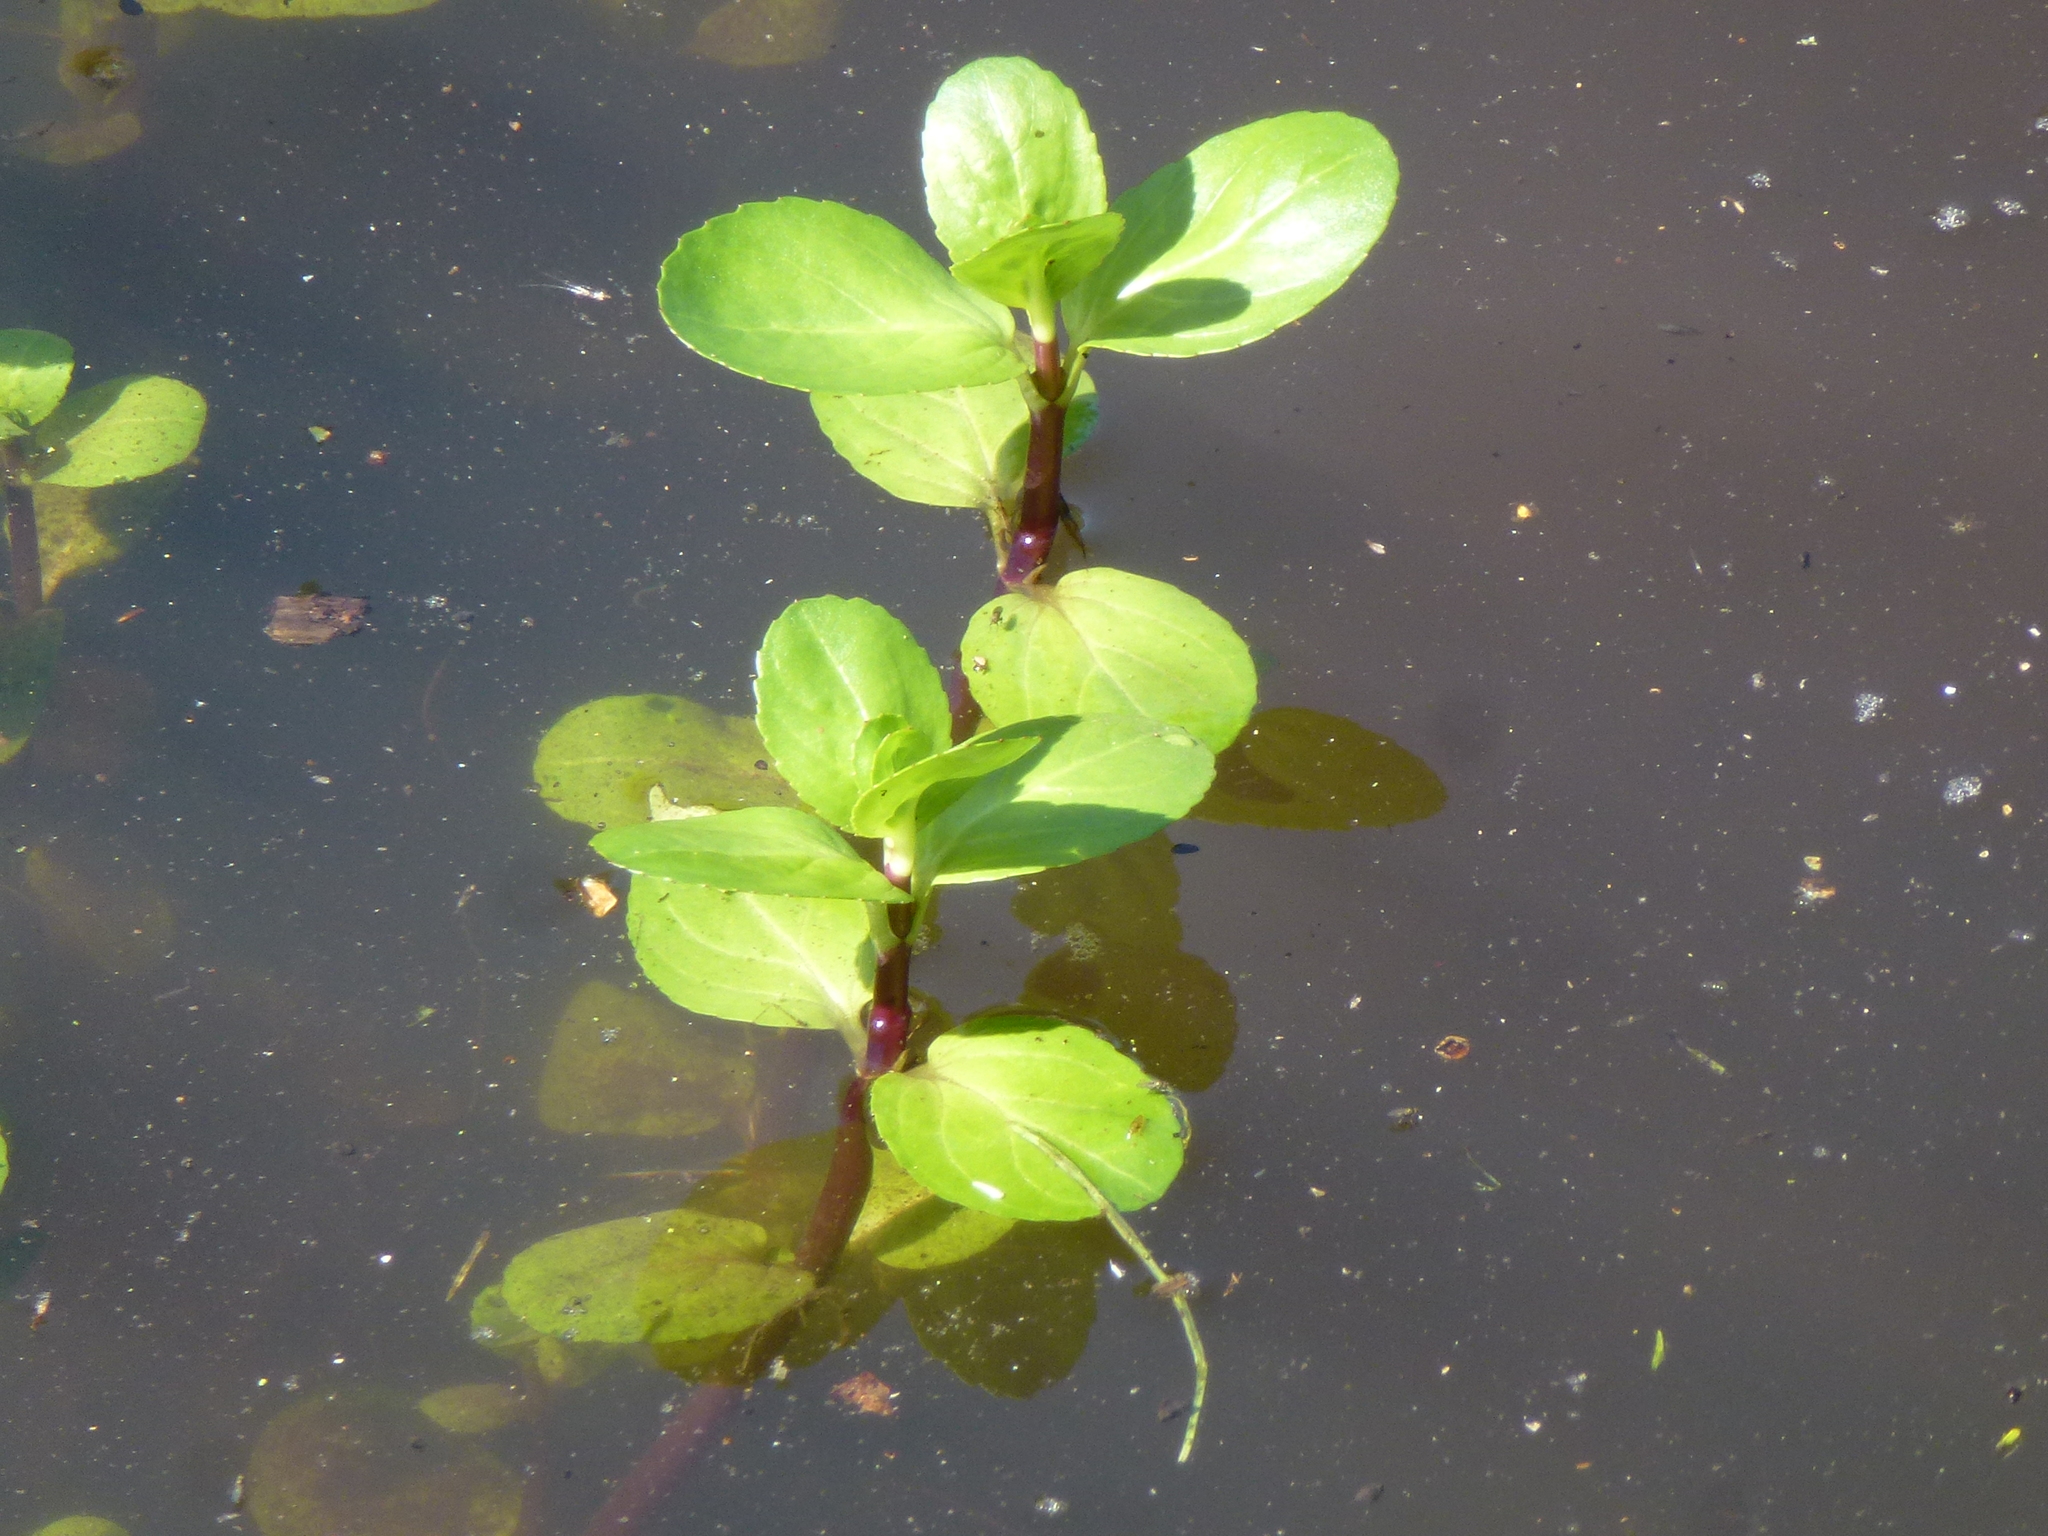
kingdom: Plantae
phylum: Tracheophyta
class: Magnoliopsida
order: Lamiales
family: Plantaginaceae
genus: Veronica
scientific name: Veronica beccabunga
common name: Brooklime
